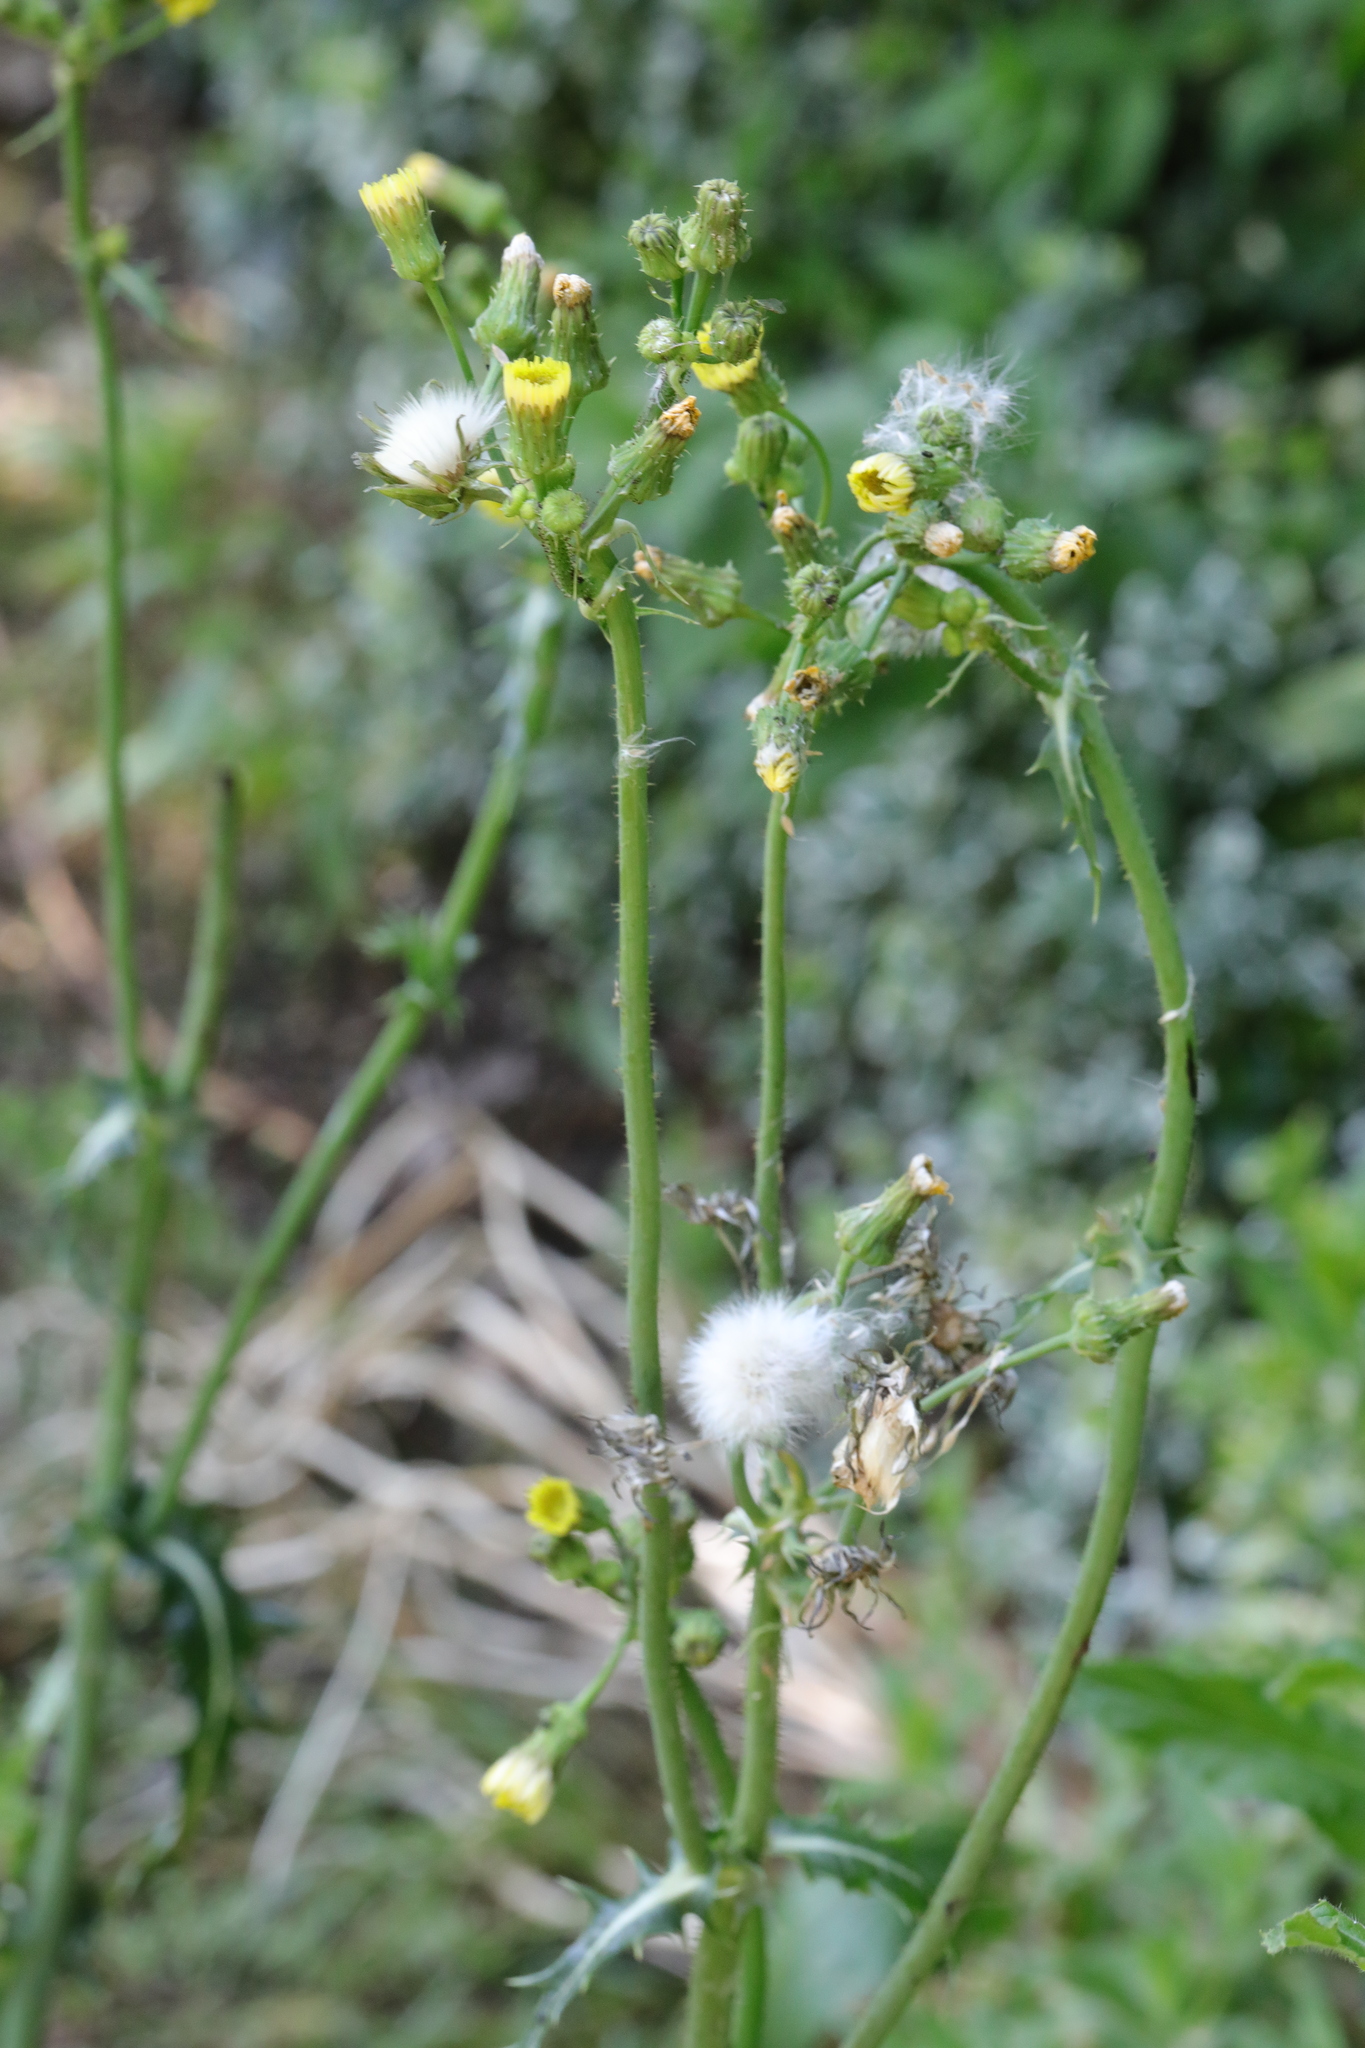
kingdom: Plantae
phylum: Tracheophyta
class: Magnoliopsida
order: Asterales
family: Asteraceae
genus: Sonchus
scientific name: Sonchus oleraceus
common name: Common sowthistle
